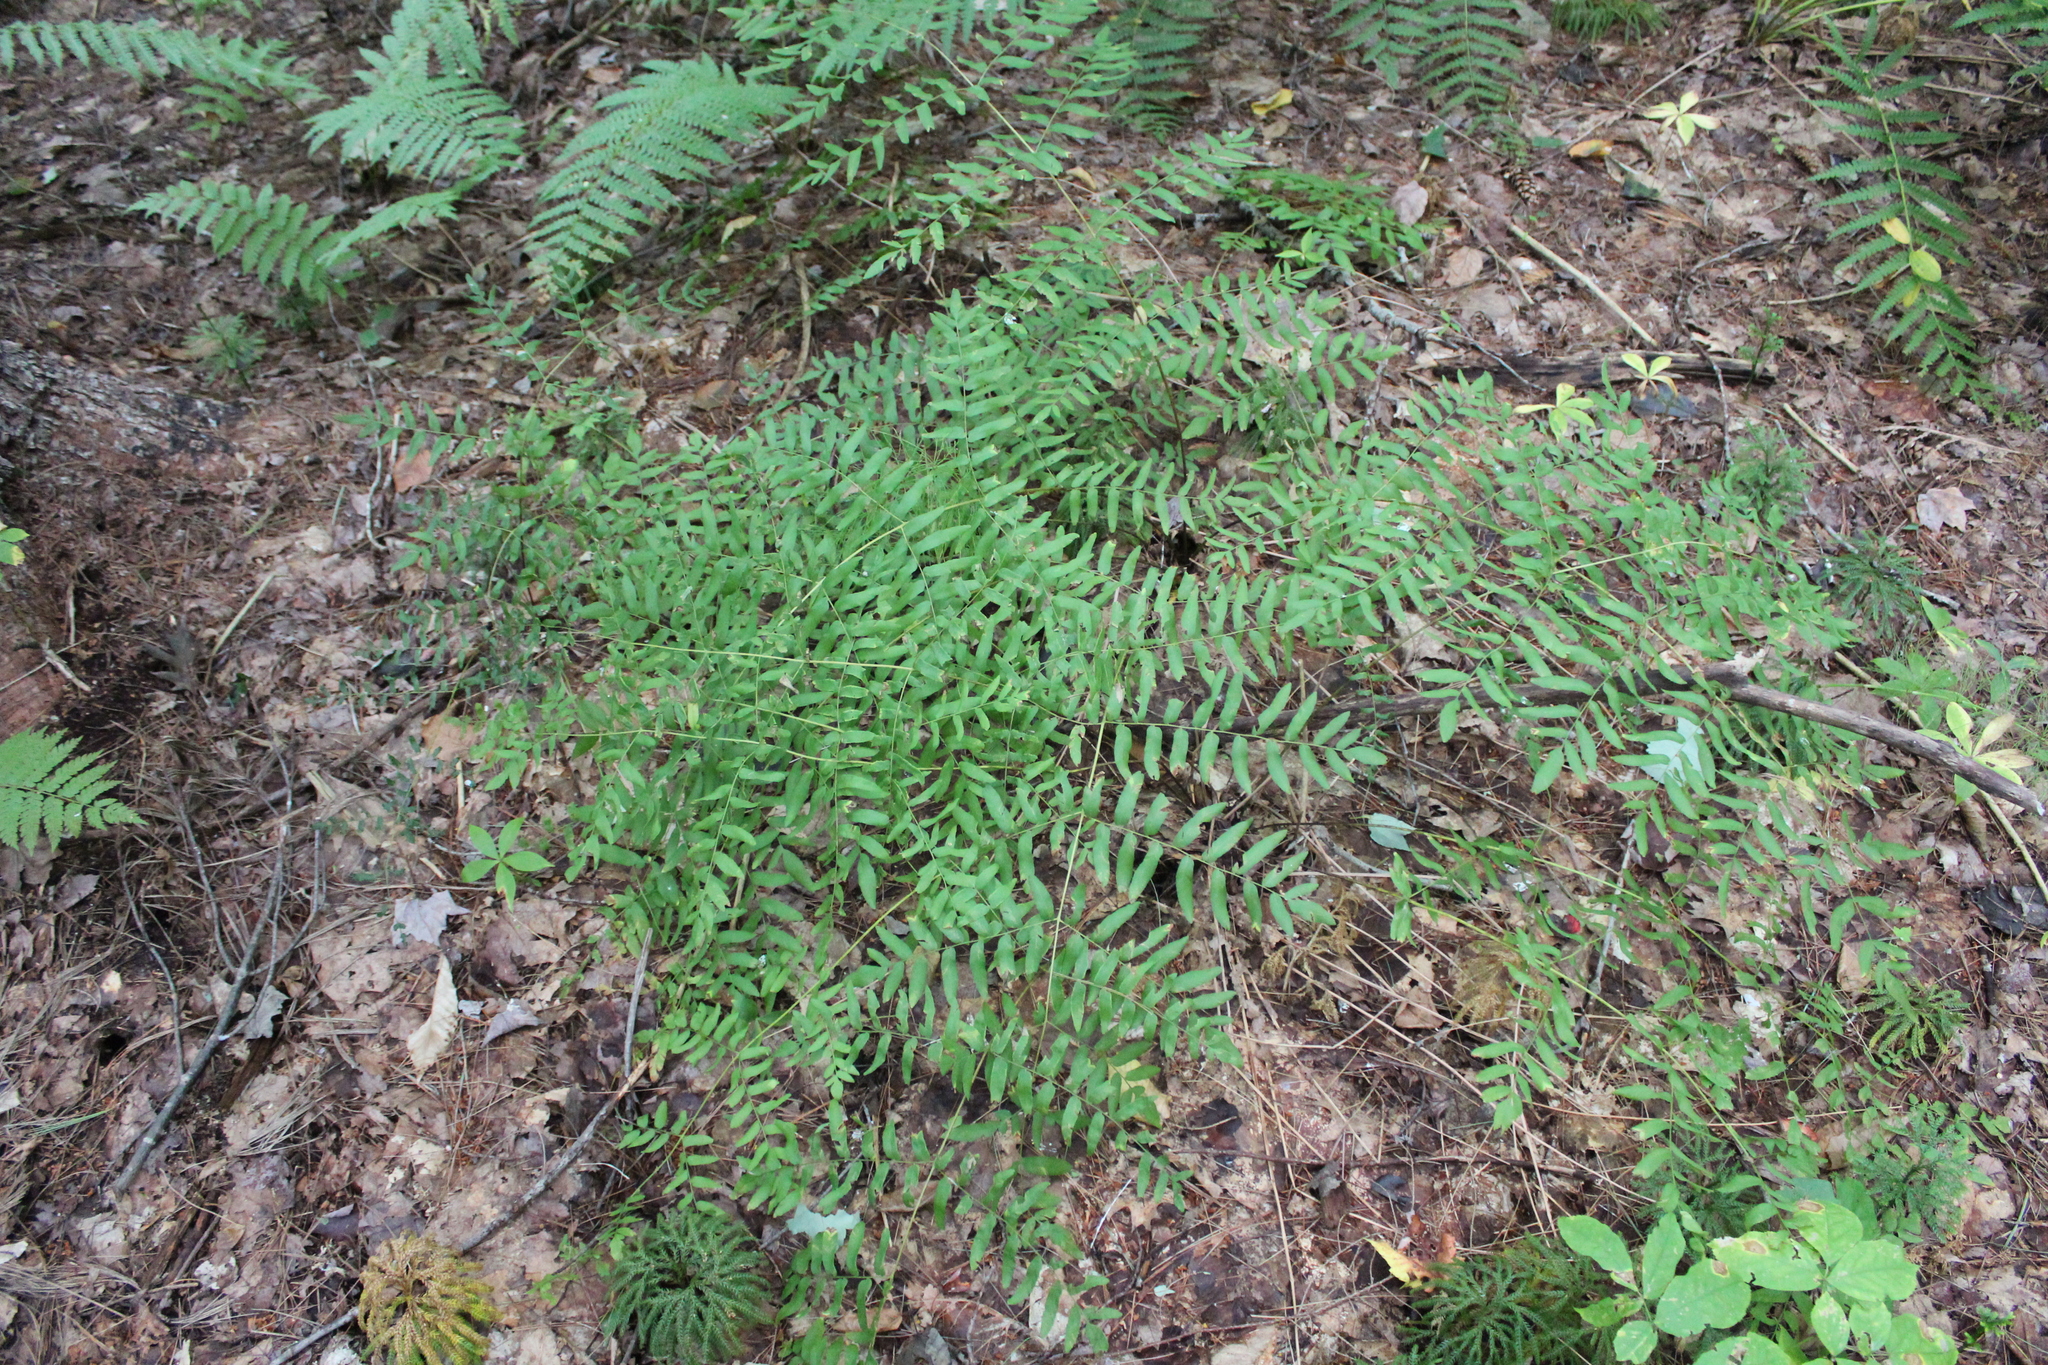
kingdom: Plantae
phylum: Tracheophyta
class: Polypodiopsida
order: Osmundales
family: Osmundaceae
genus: Osmunda
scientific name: Osmunda spectabilis
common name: American royal fern
